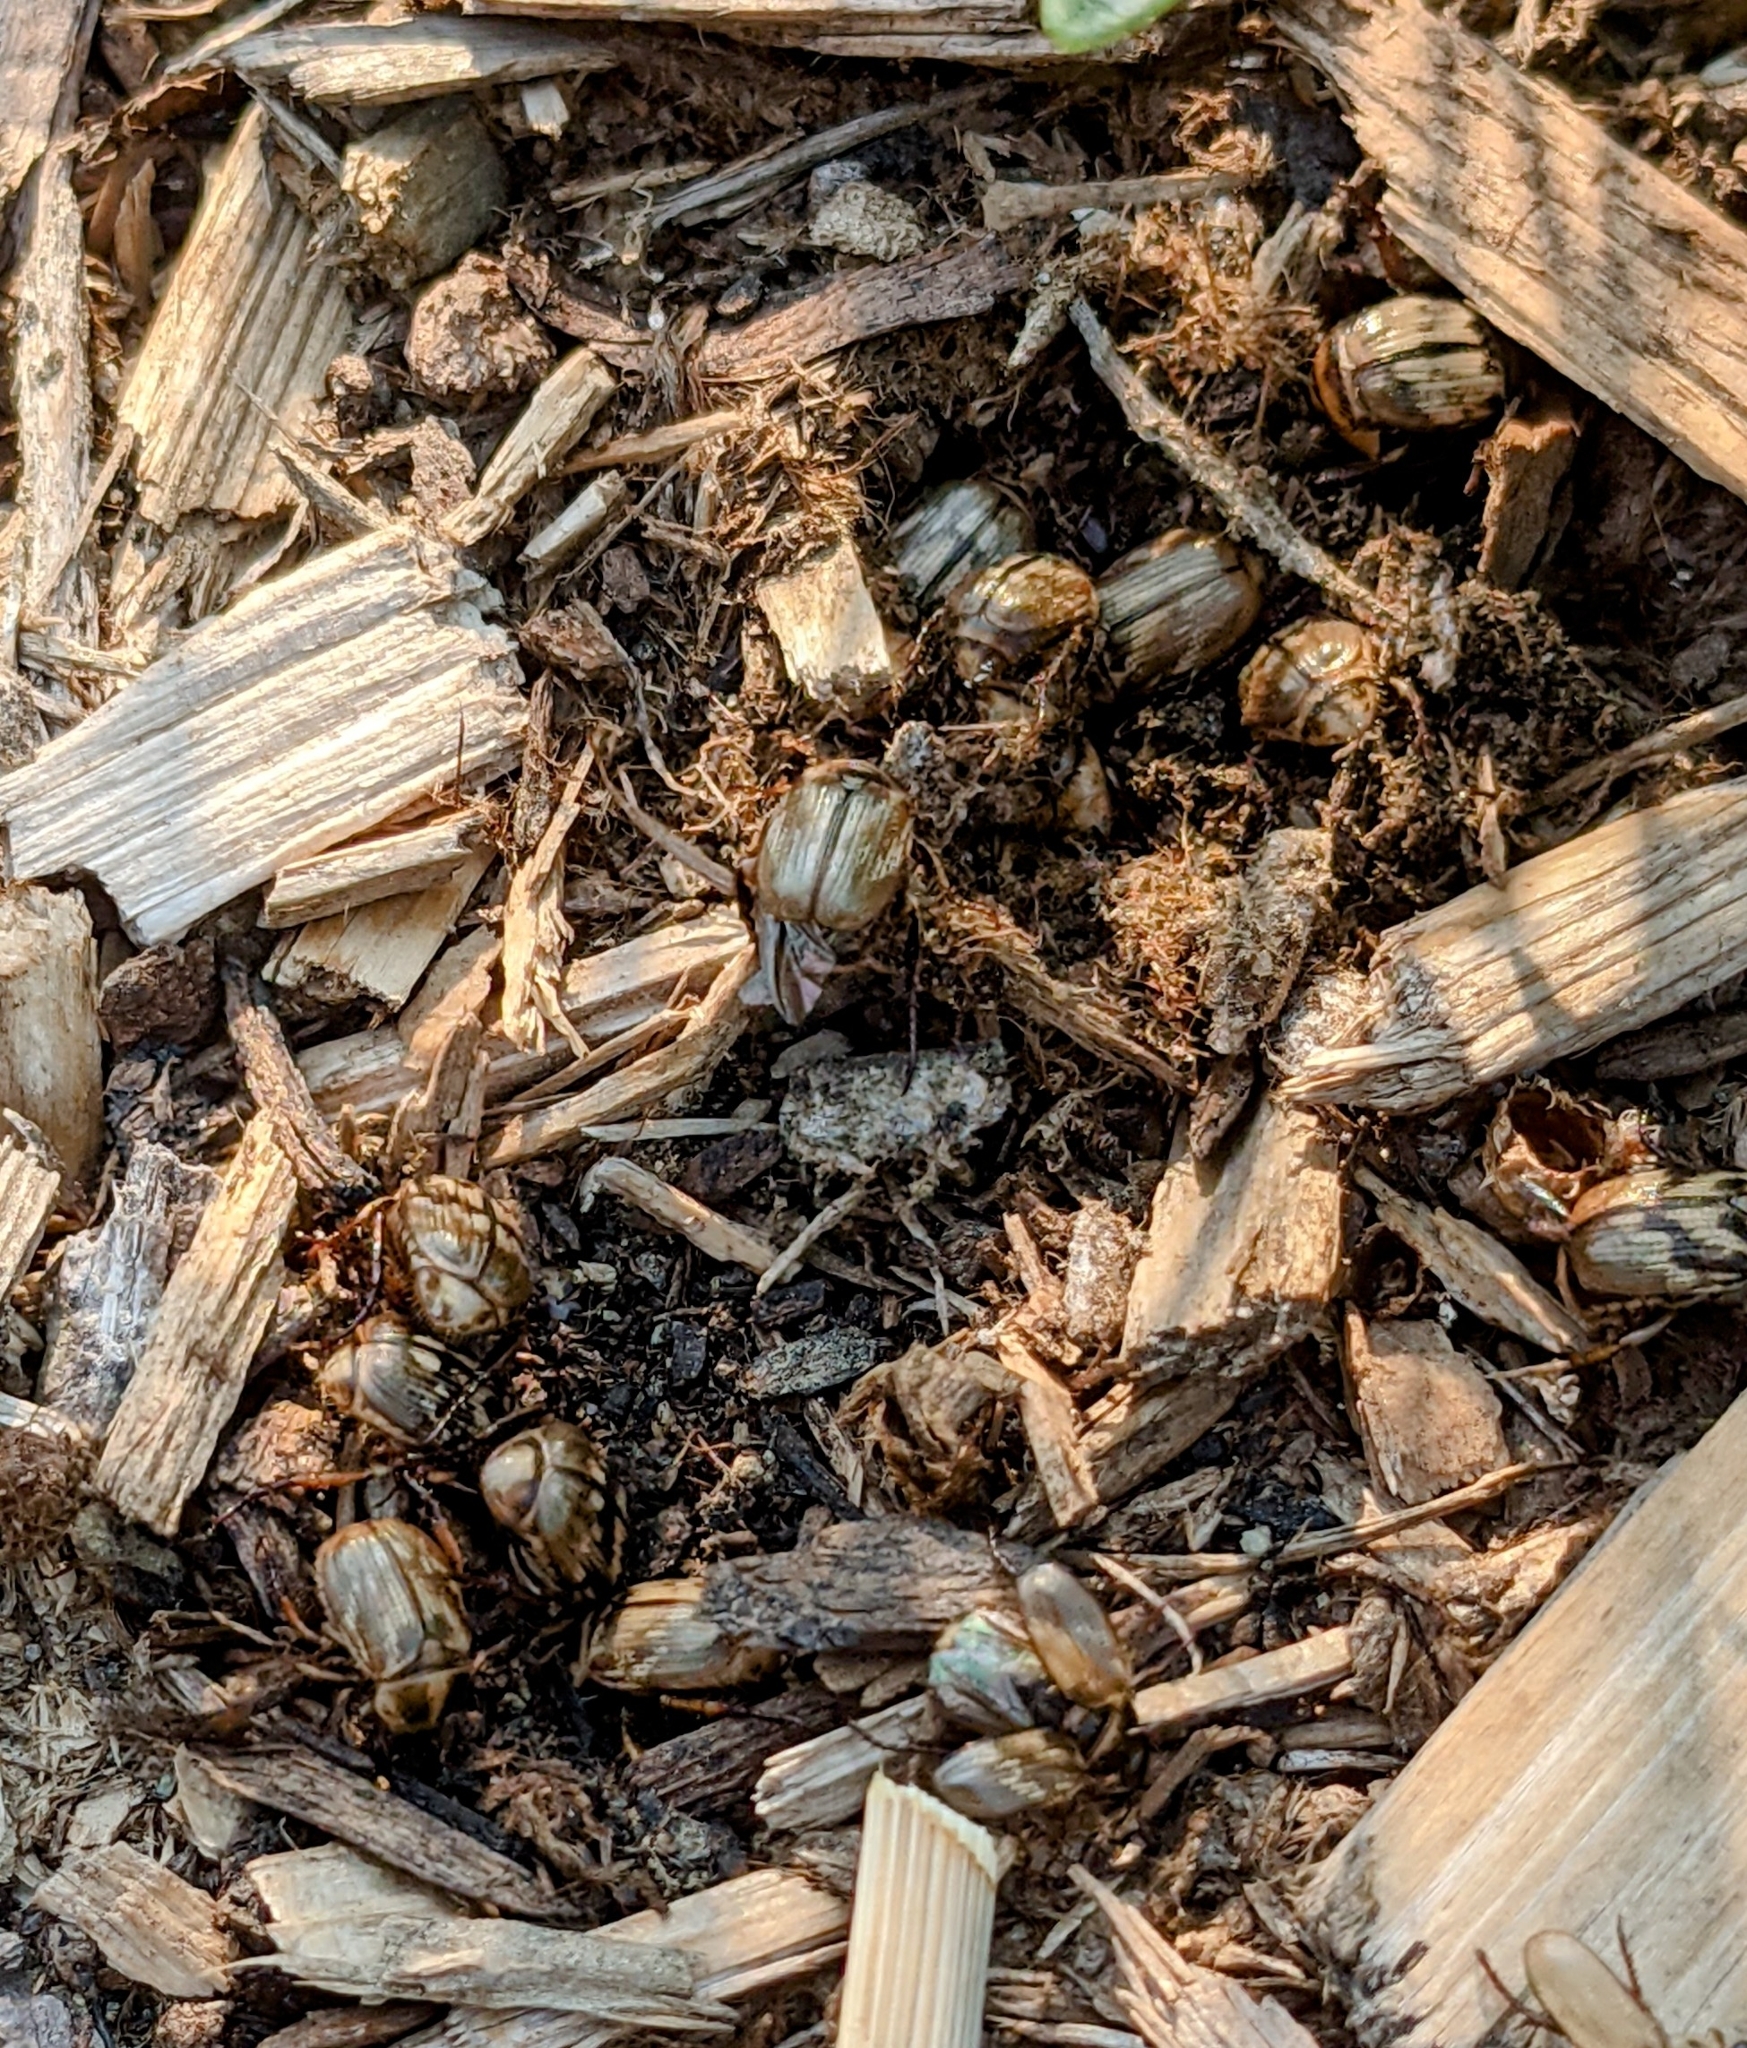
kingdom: Animalia
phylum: Arthropoda
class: Insecta
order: Coleoptera
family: Scarabaeidae
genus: Exomala
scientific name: Exomala orientalis
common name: Oriental beetle
